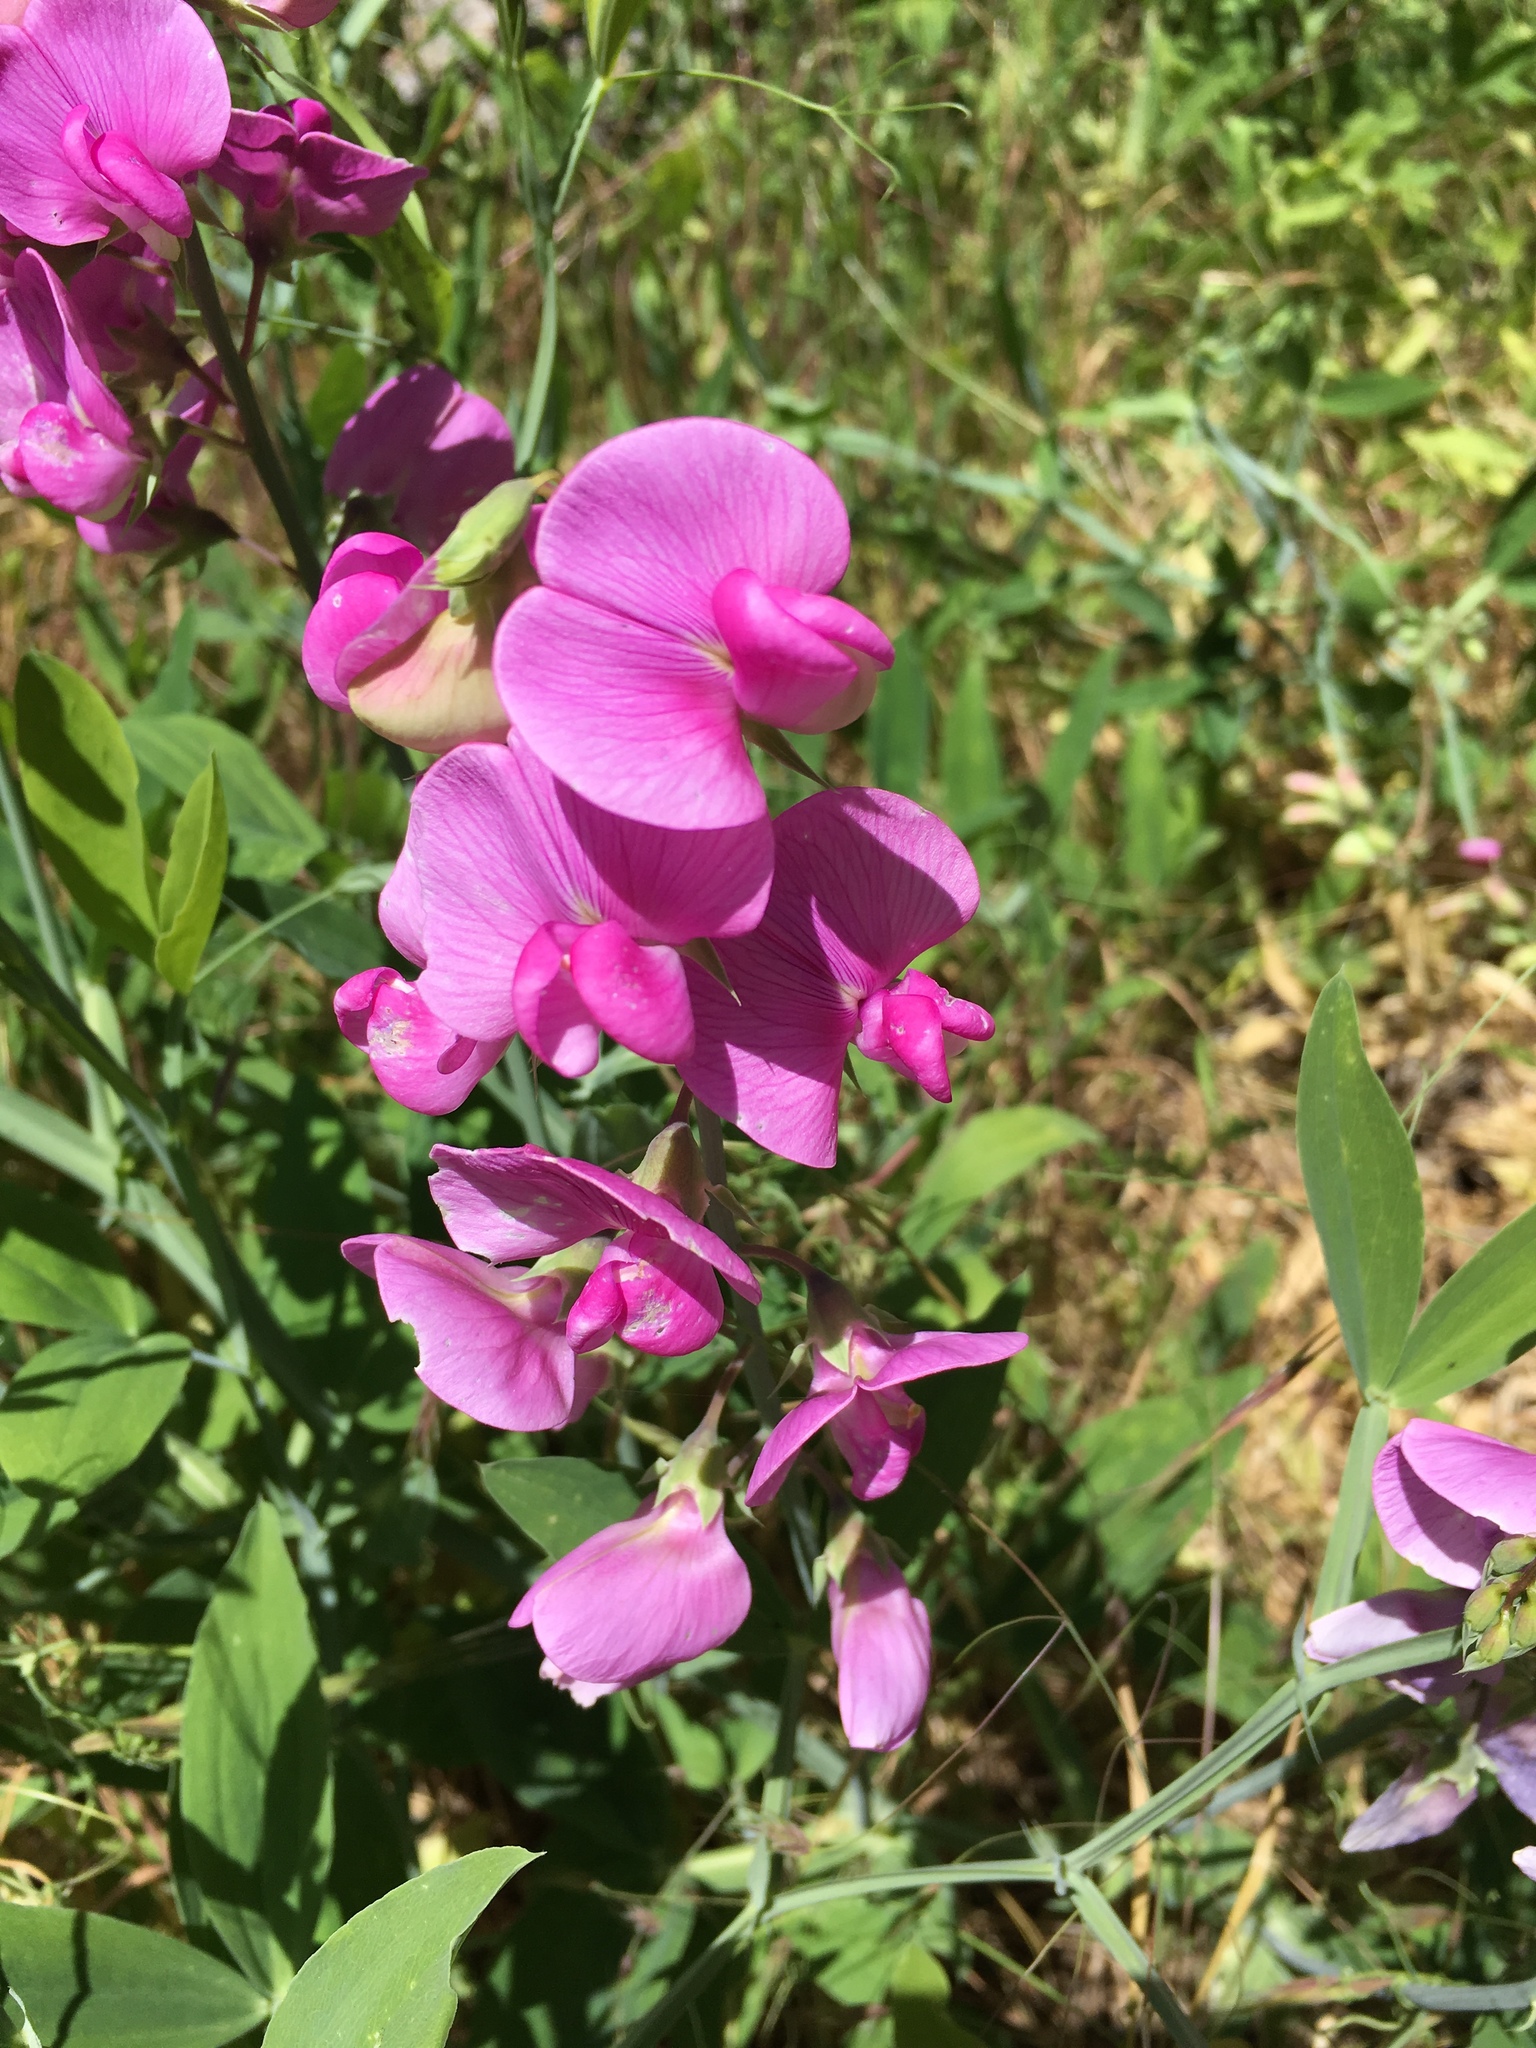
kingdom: Plantae
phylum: Tracheophyta
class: Magnoliopsida
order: Fabales
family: Fabaceae
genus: Lathyrus
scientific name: Lathyrus latifolius
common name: Perennial pea
